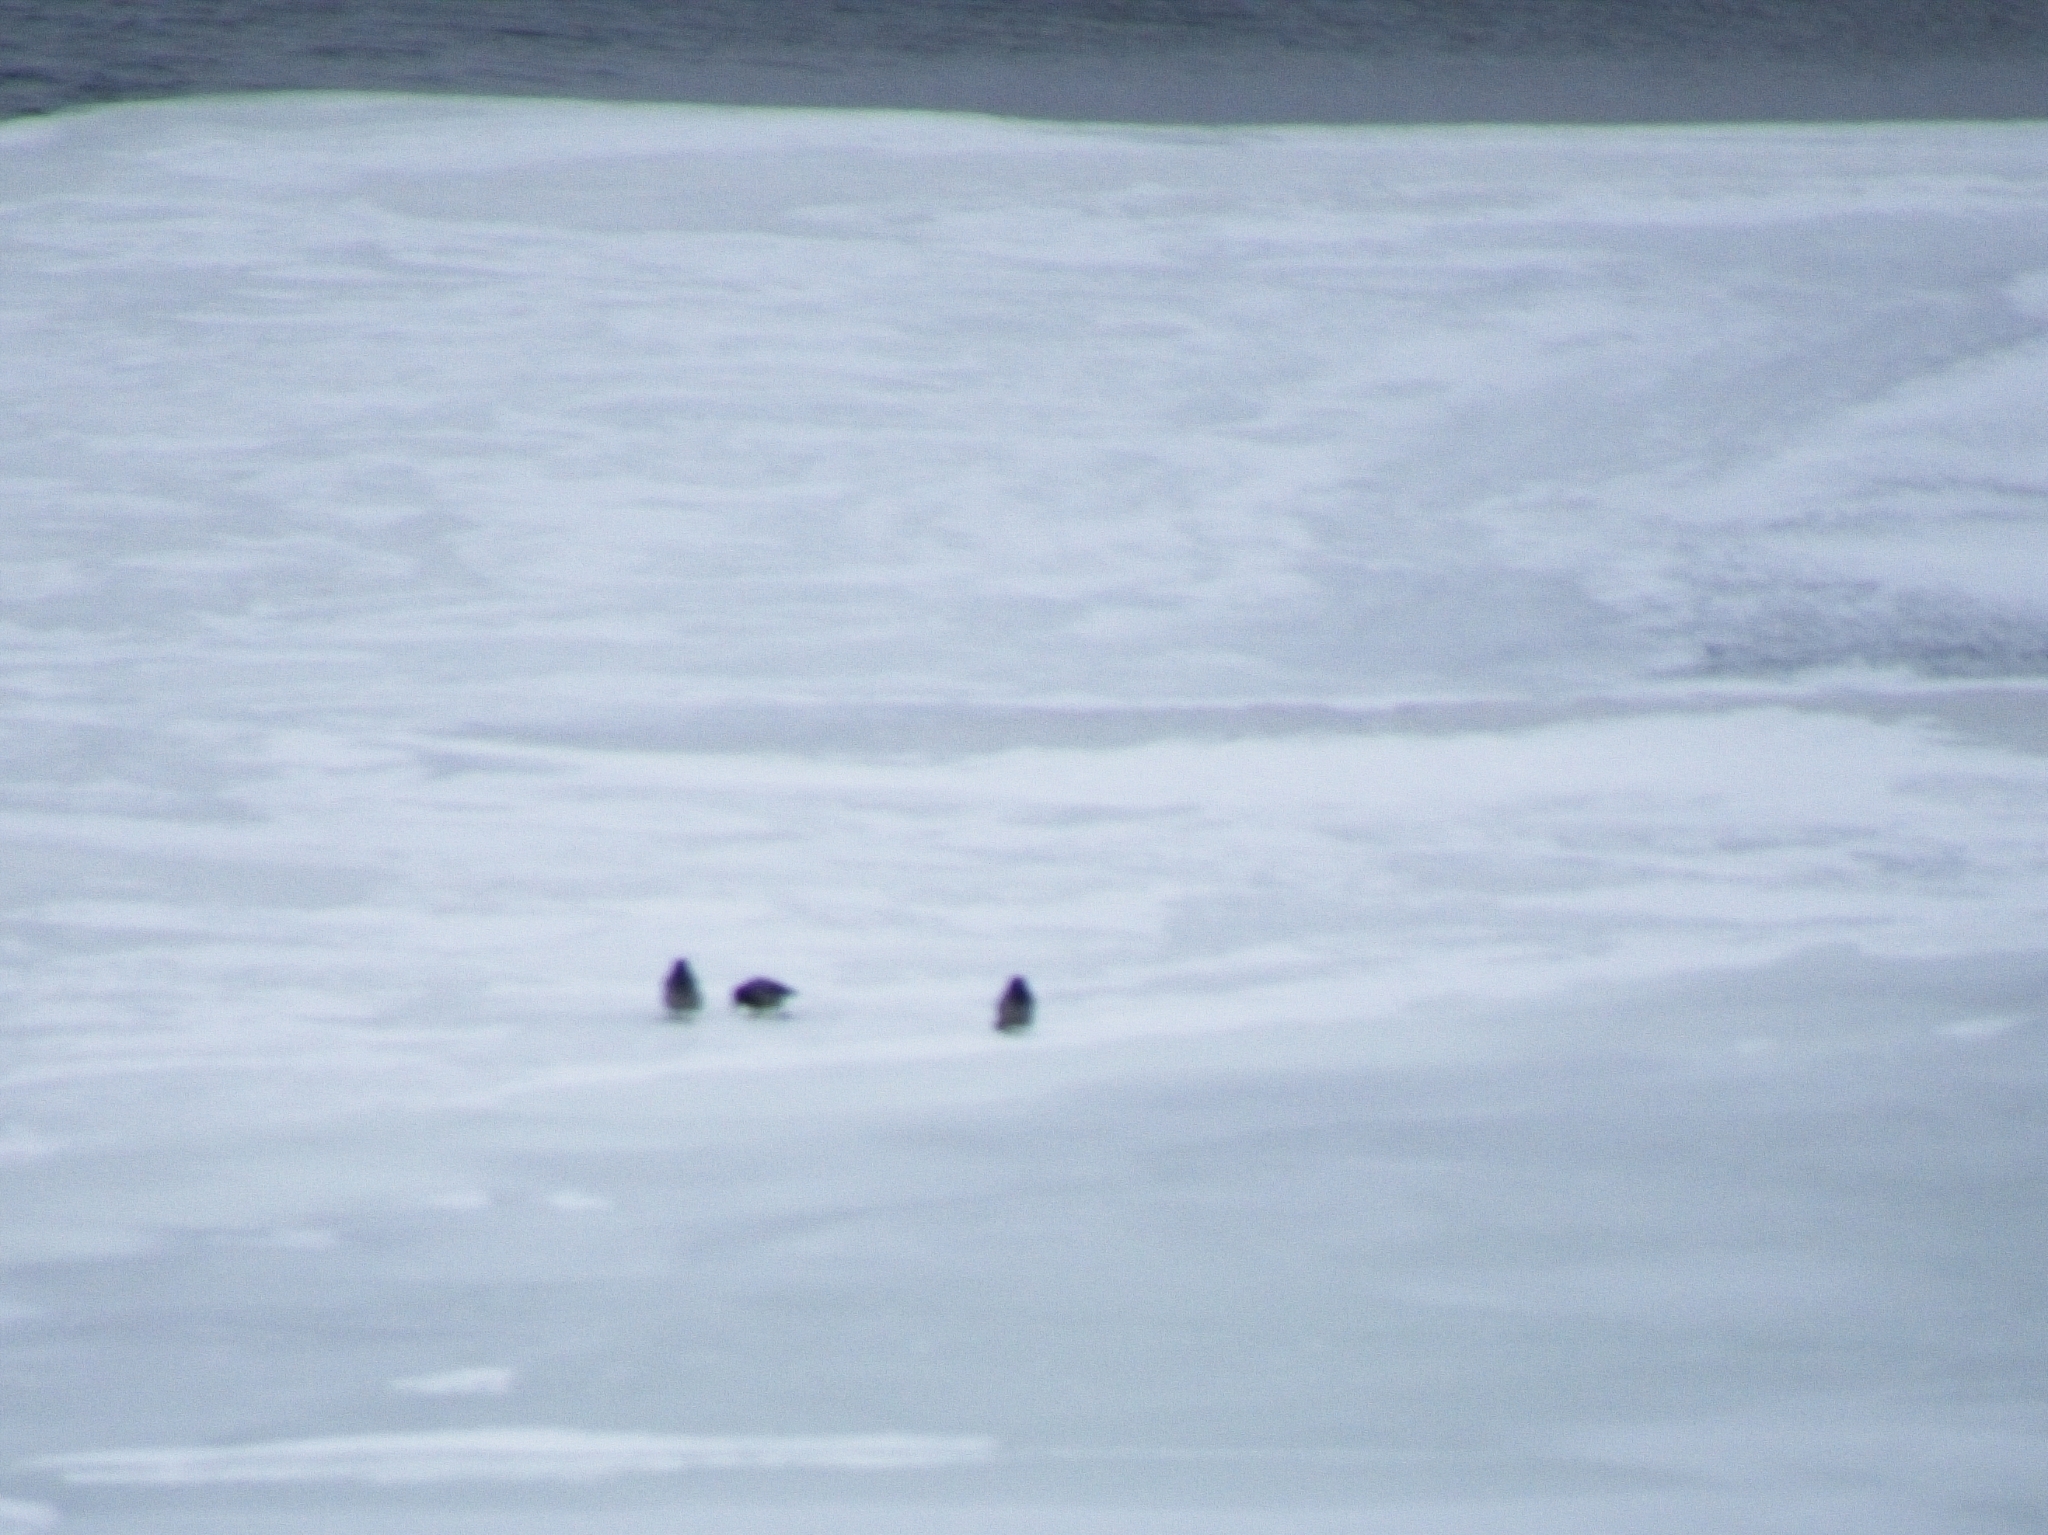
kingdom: Animalia
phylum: Chordata
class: Aves
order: Passeriformes
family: Corvidae
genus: Corvus
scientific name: Corvus cornix
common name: Hooded crow
